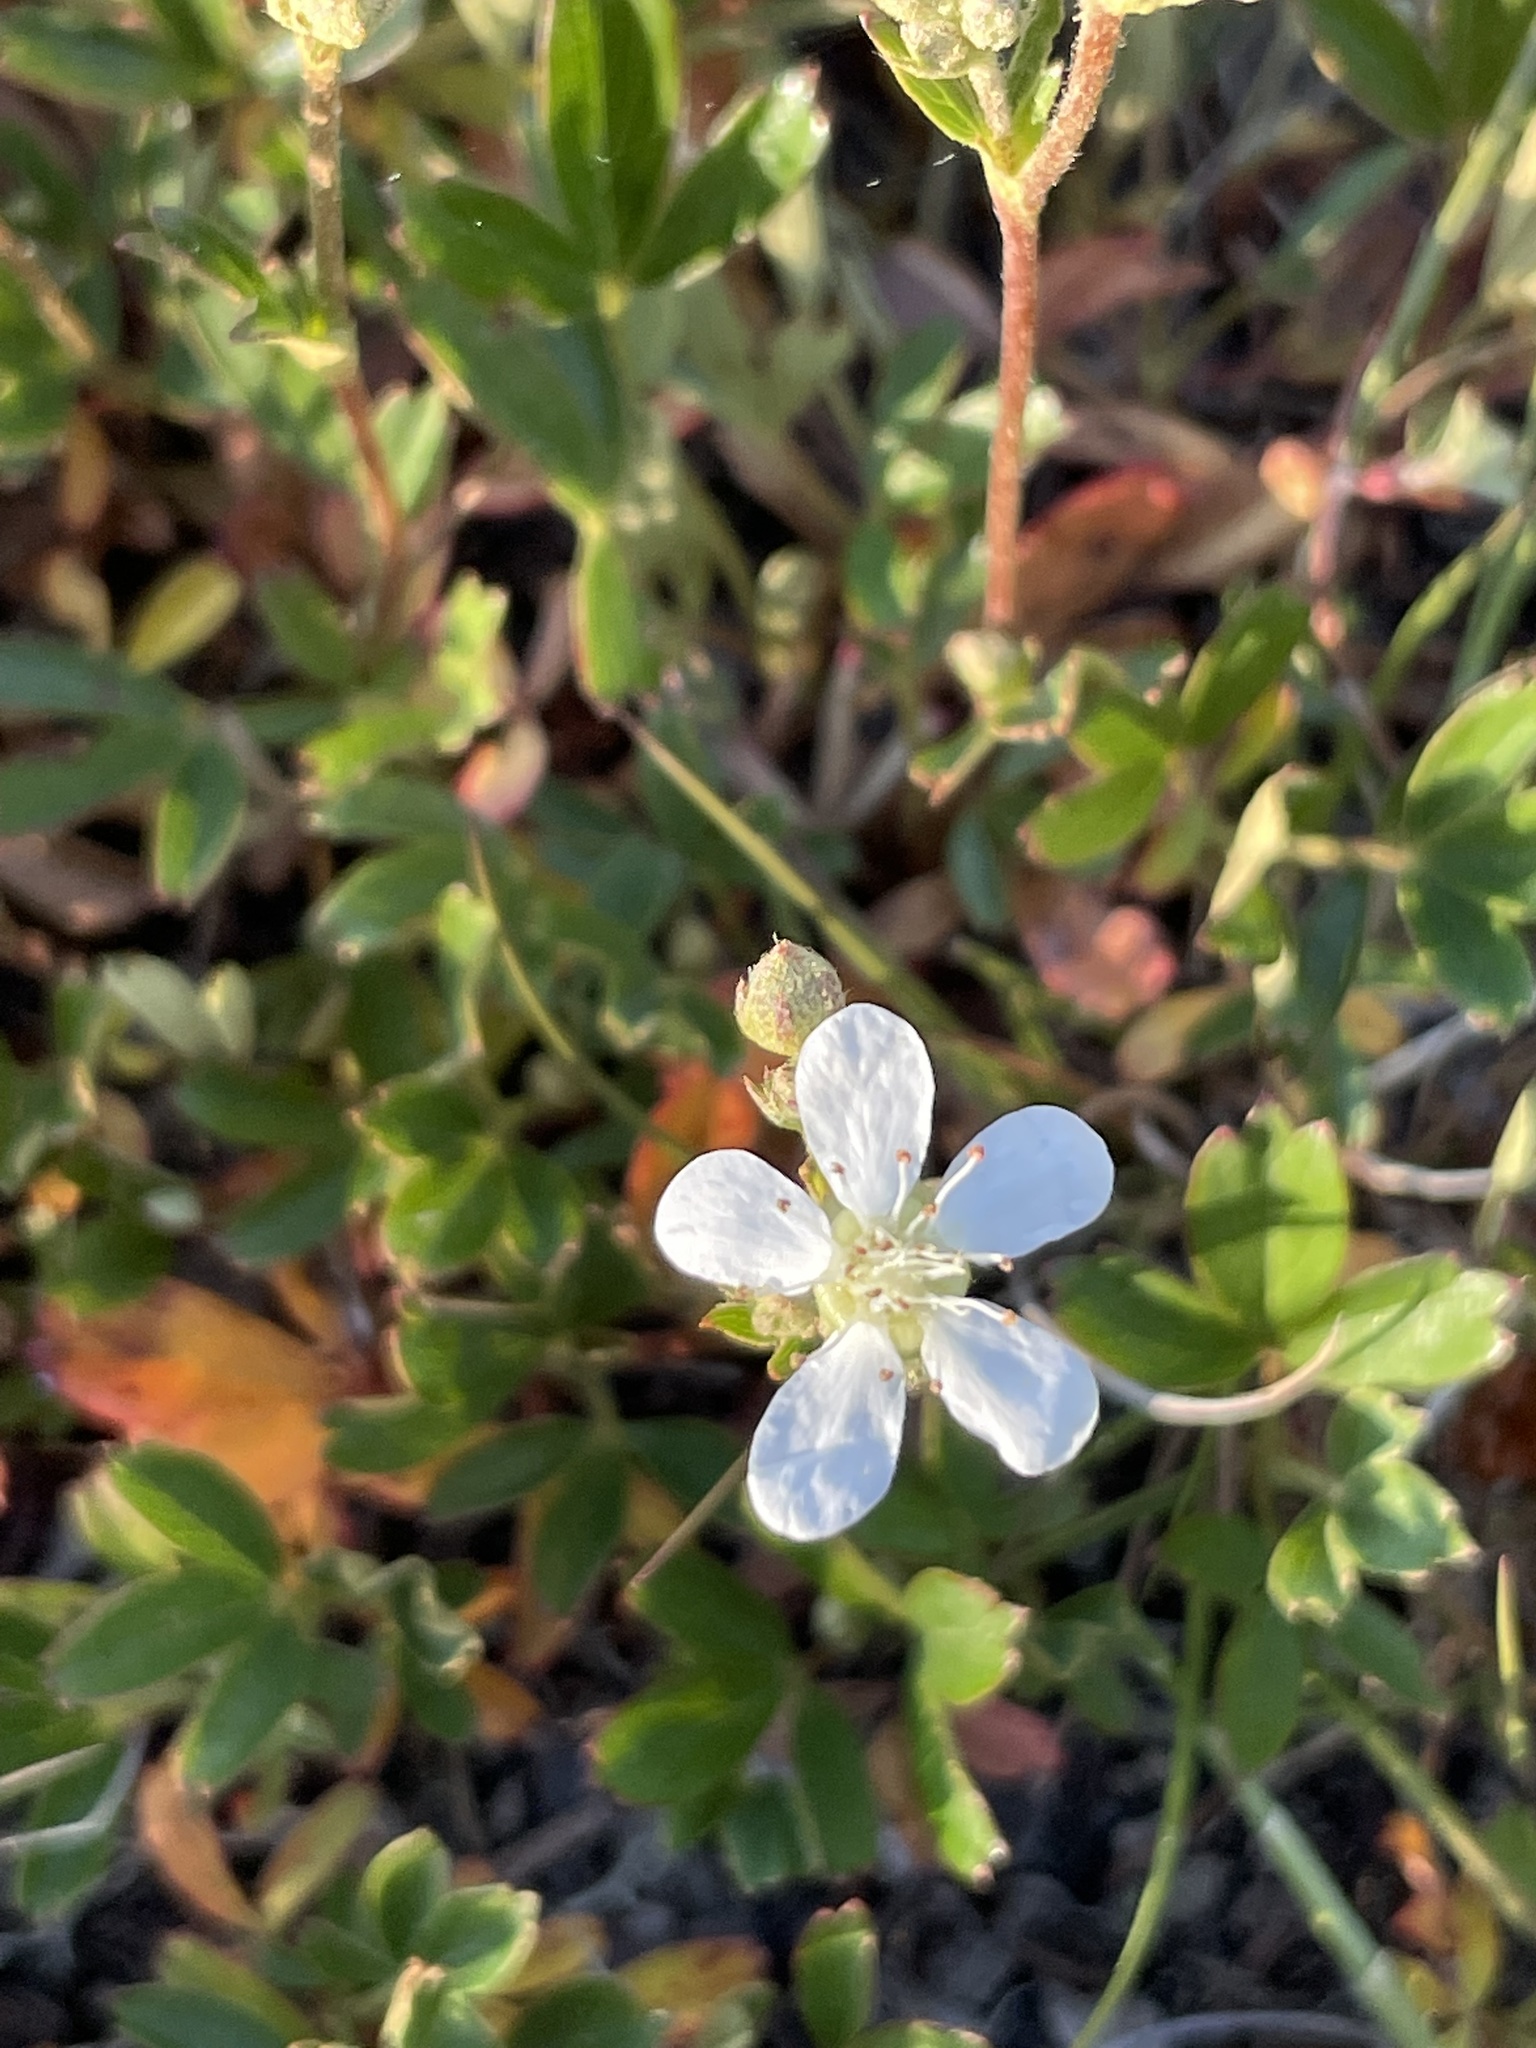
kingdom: Plantae
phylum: Tracheophyta
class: Magnoliopsida
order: Rosales
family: Rosaceae
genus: Sibbaldia
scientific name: Sibbaldia tridentata
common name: Three-toothed cinquefoil
